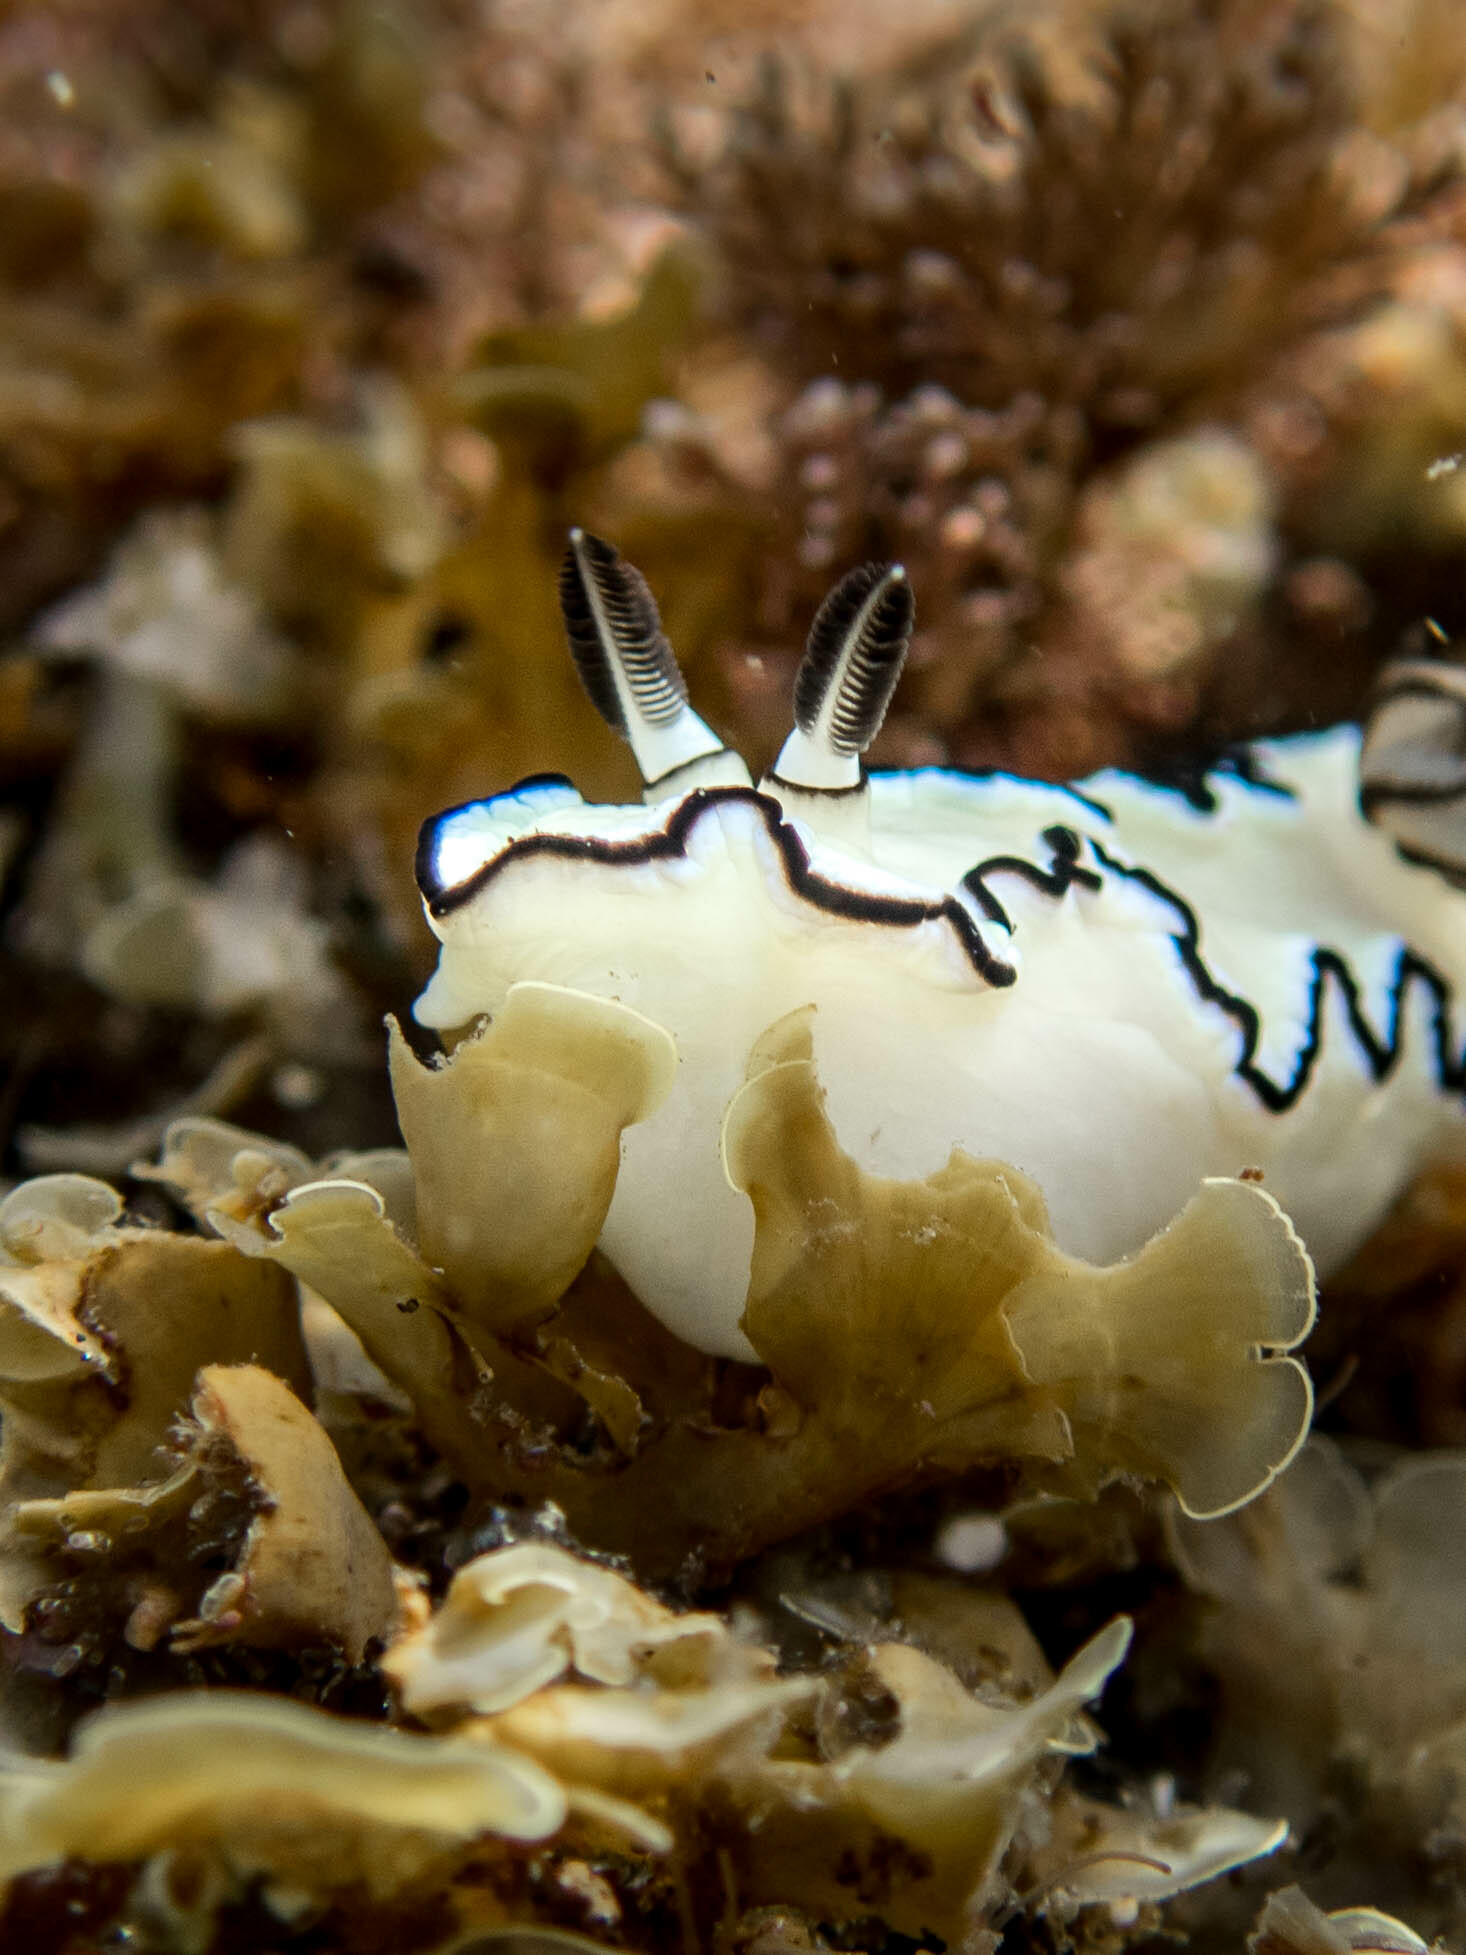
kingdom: Animalia
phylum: Mollusca
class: Gastropoda
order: Nudibranchia
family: Chromodorididae
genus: Doriprismatica
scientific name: Doriprismatica atromarginata
